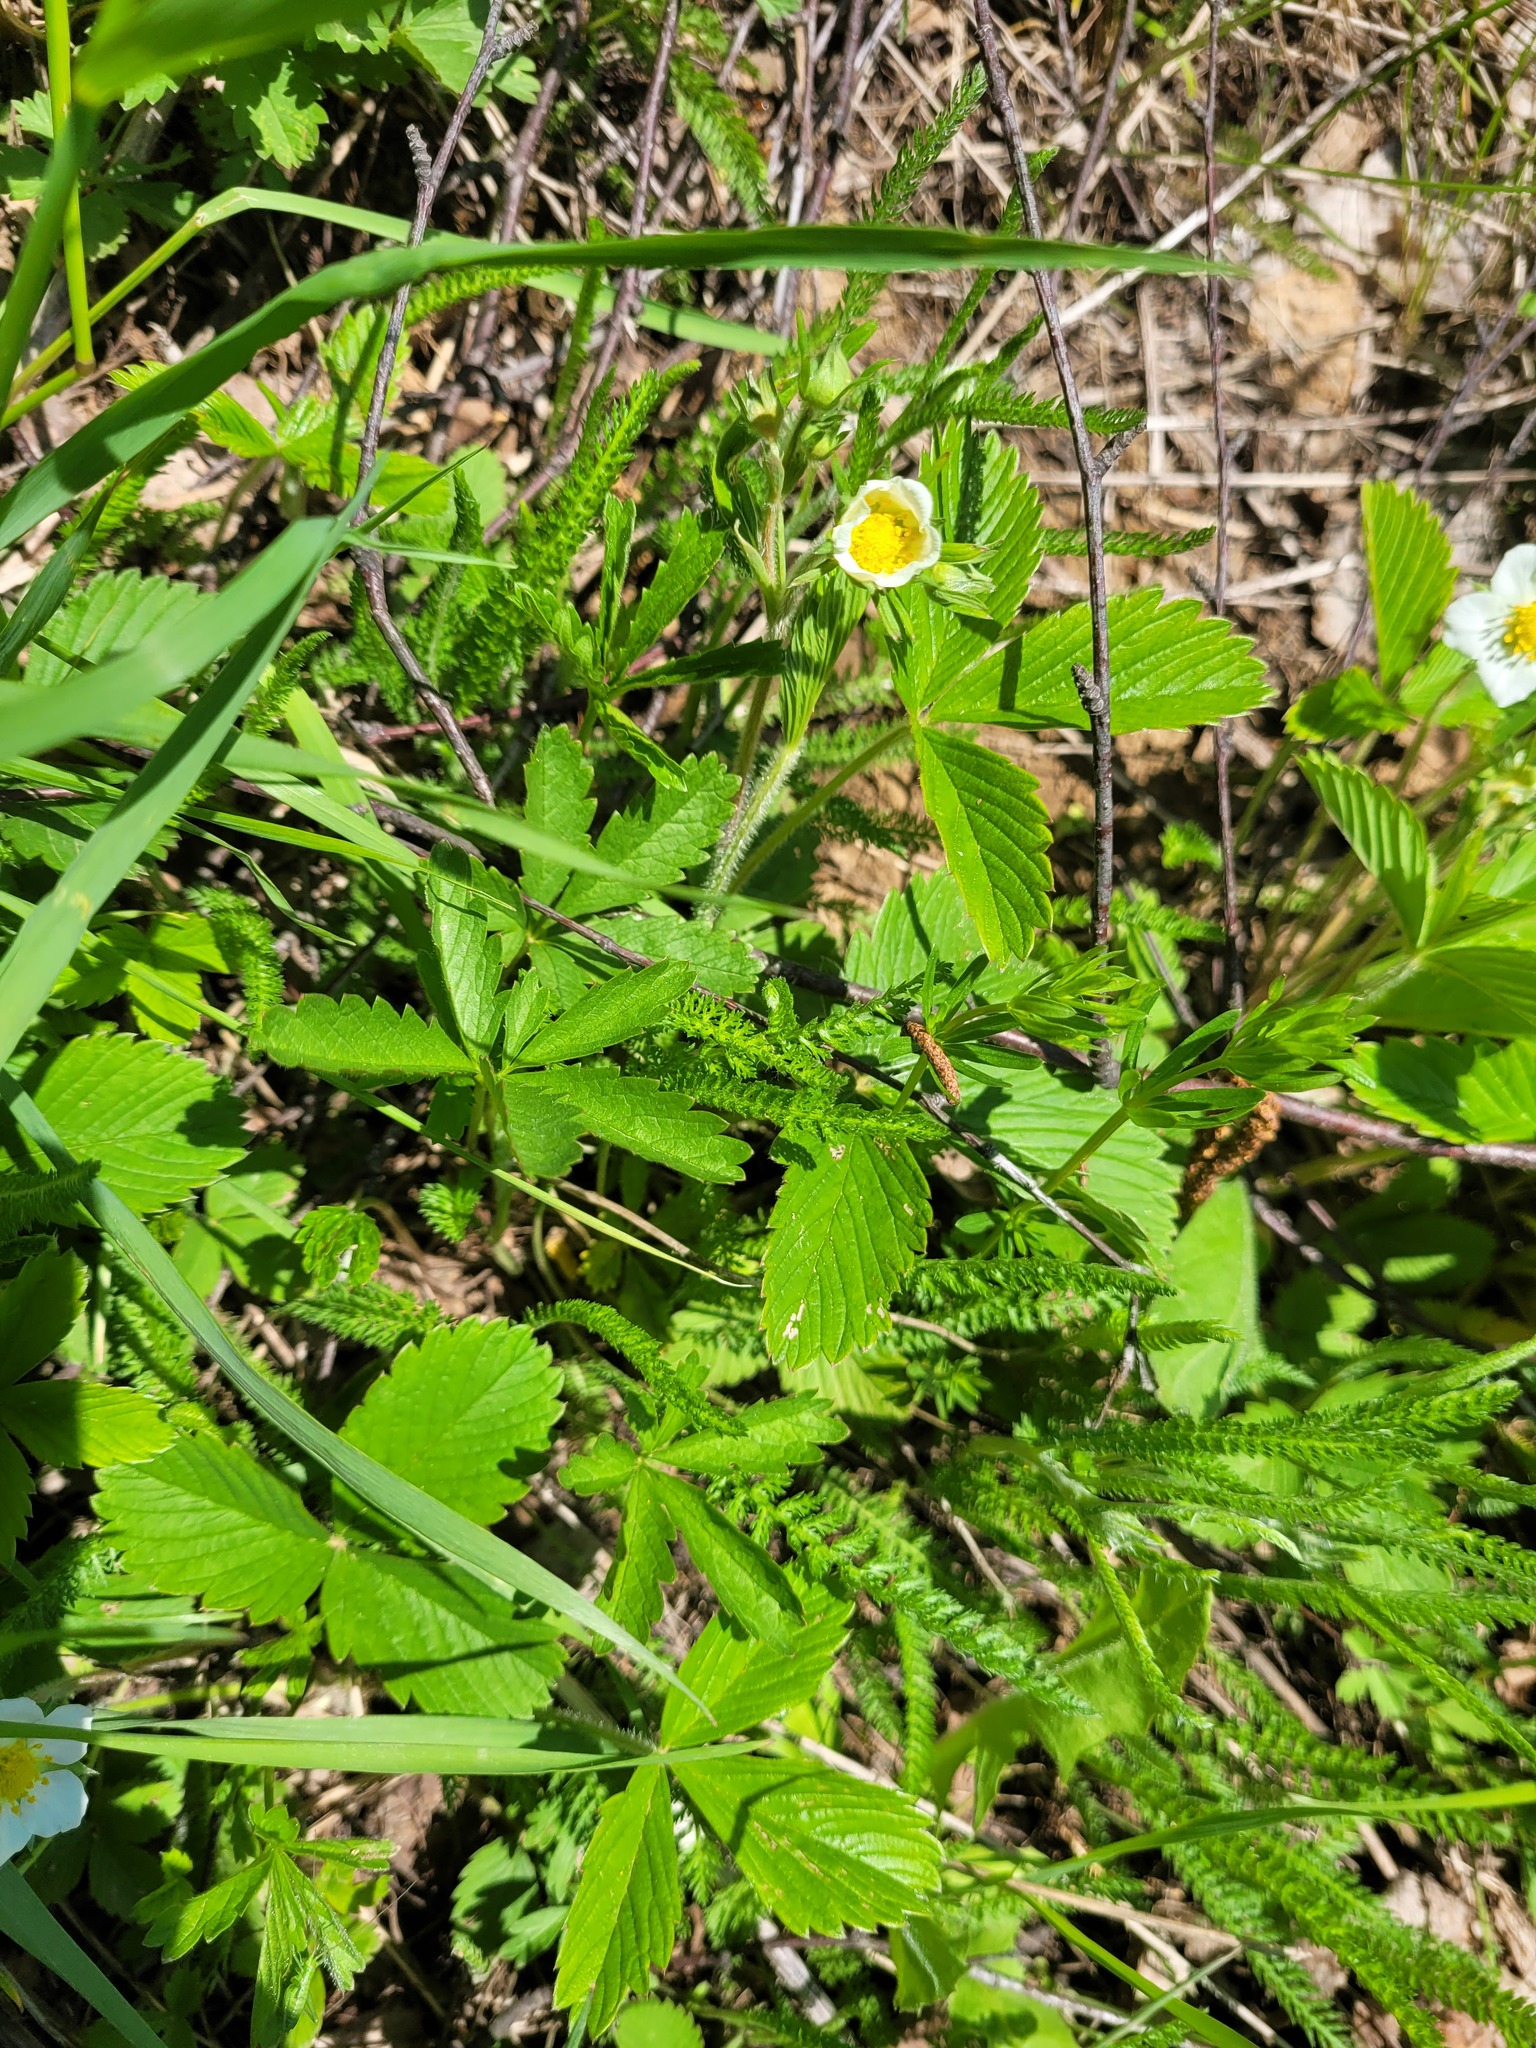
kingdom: Plantae
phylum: Tracheophyta
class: Magnoliopsida
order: Rosales
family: Rosaceae
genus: Potentilla
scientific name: Potentilla reptans
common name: Creeping cinquefoil
